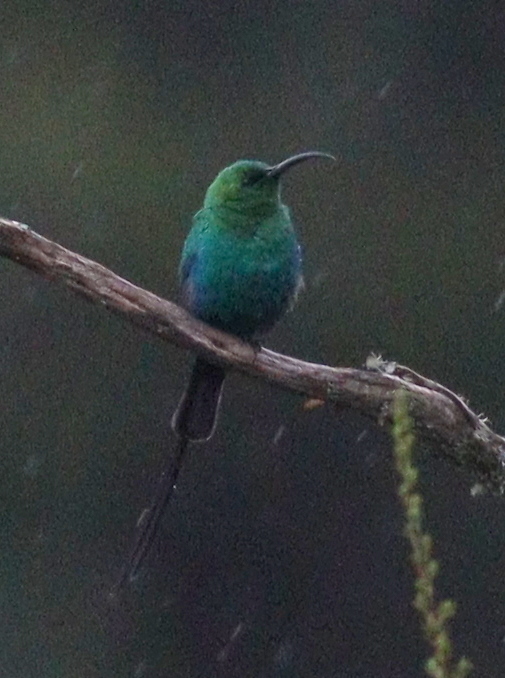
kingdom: Animalia
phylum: Chordata
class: Aves
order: Passeriformes
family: Nectariniidae
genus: Nectarinia
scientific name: Nectarinia famosa
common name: Malachite sunbird
